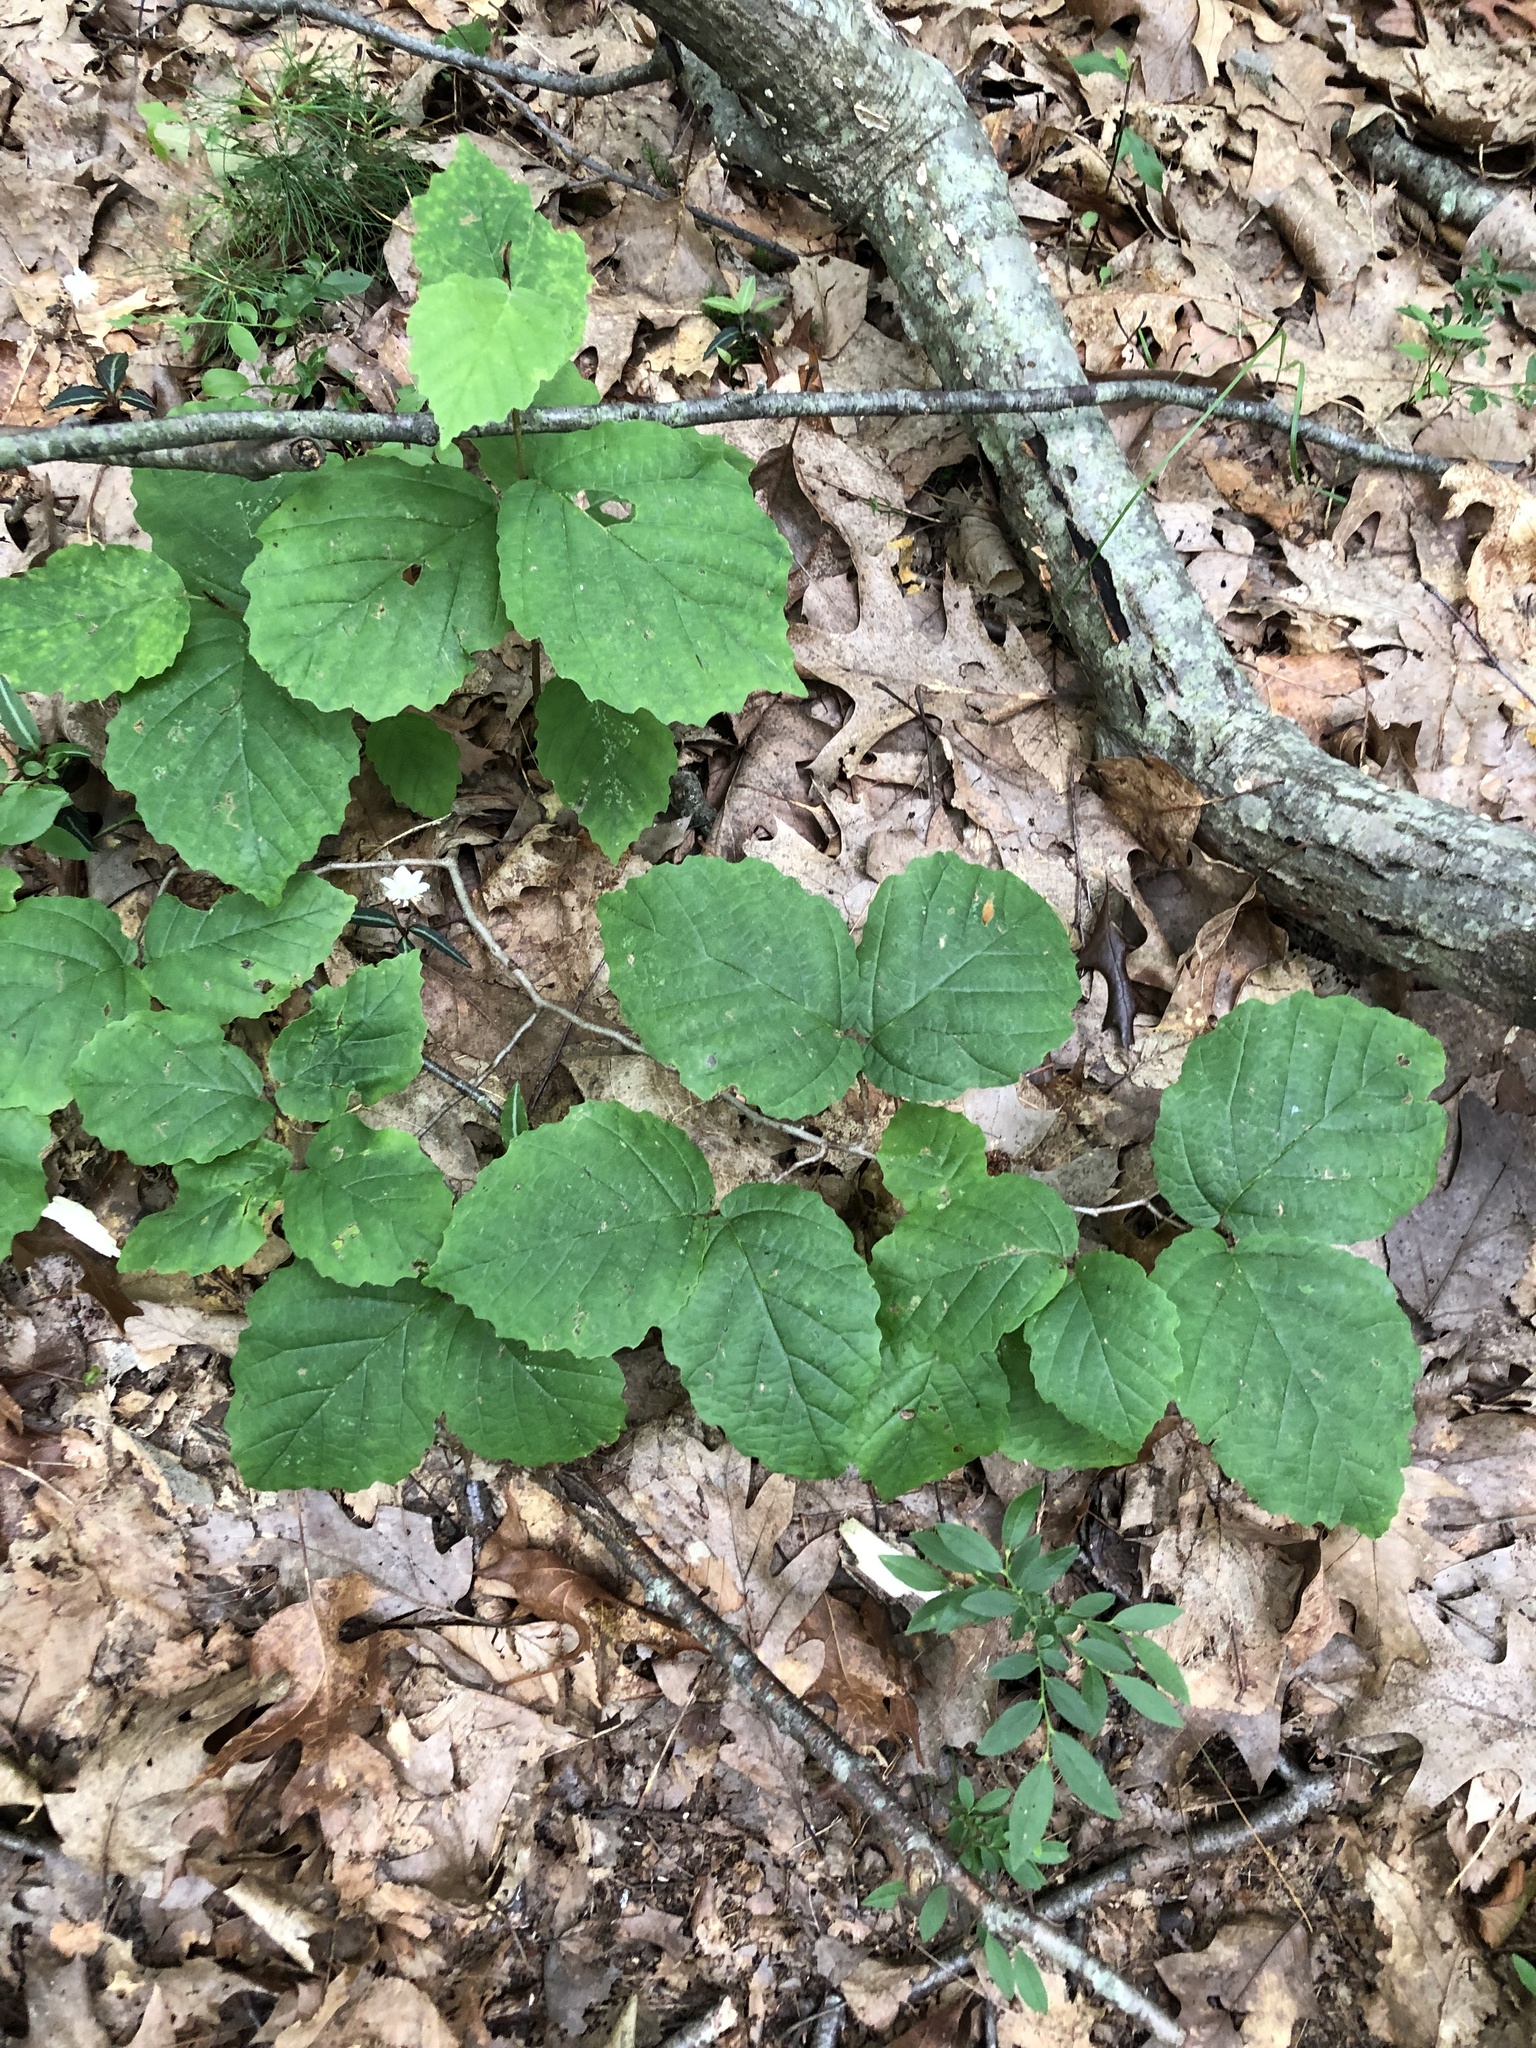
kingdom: Plantae
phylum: Tracheophyta
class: Magnoliopsida
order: Saxifragales
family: Hamamelidaceae
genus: Hamamelis
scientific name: Hamamelis virginiana
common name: Witch-hazel
